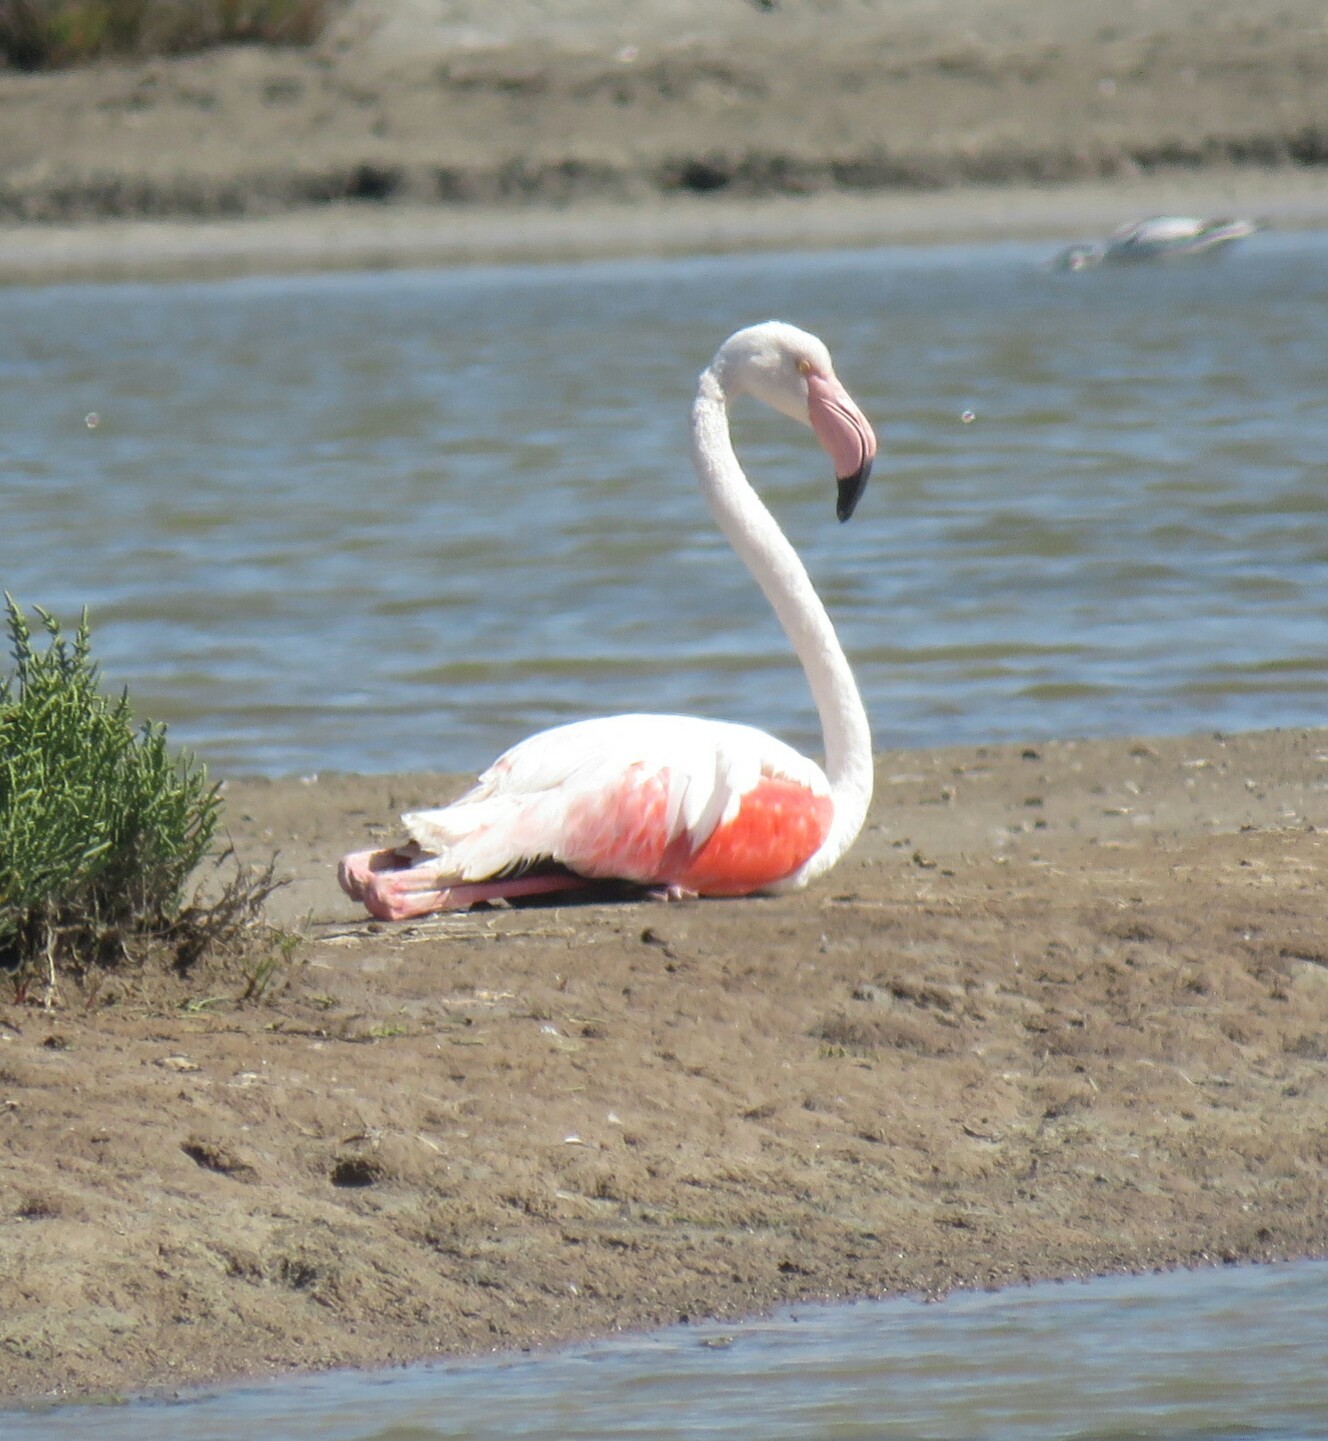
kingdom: Animalia
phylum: Chordata
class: Aves
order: Phoenicopteriformes
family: Phoenicopteridae
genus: Phoenicopterus
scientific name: Phoenicopterus roseus
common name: Greater flamingo
